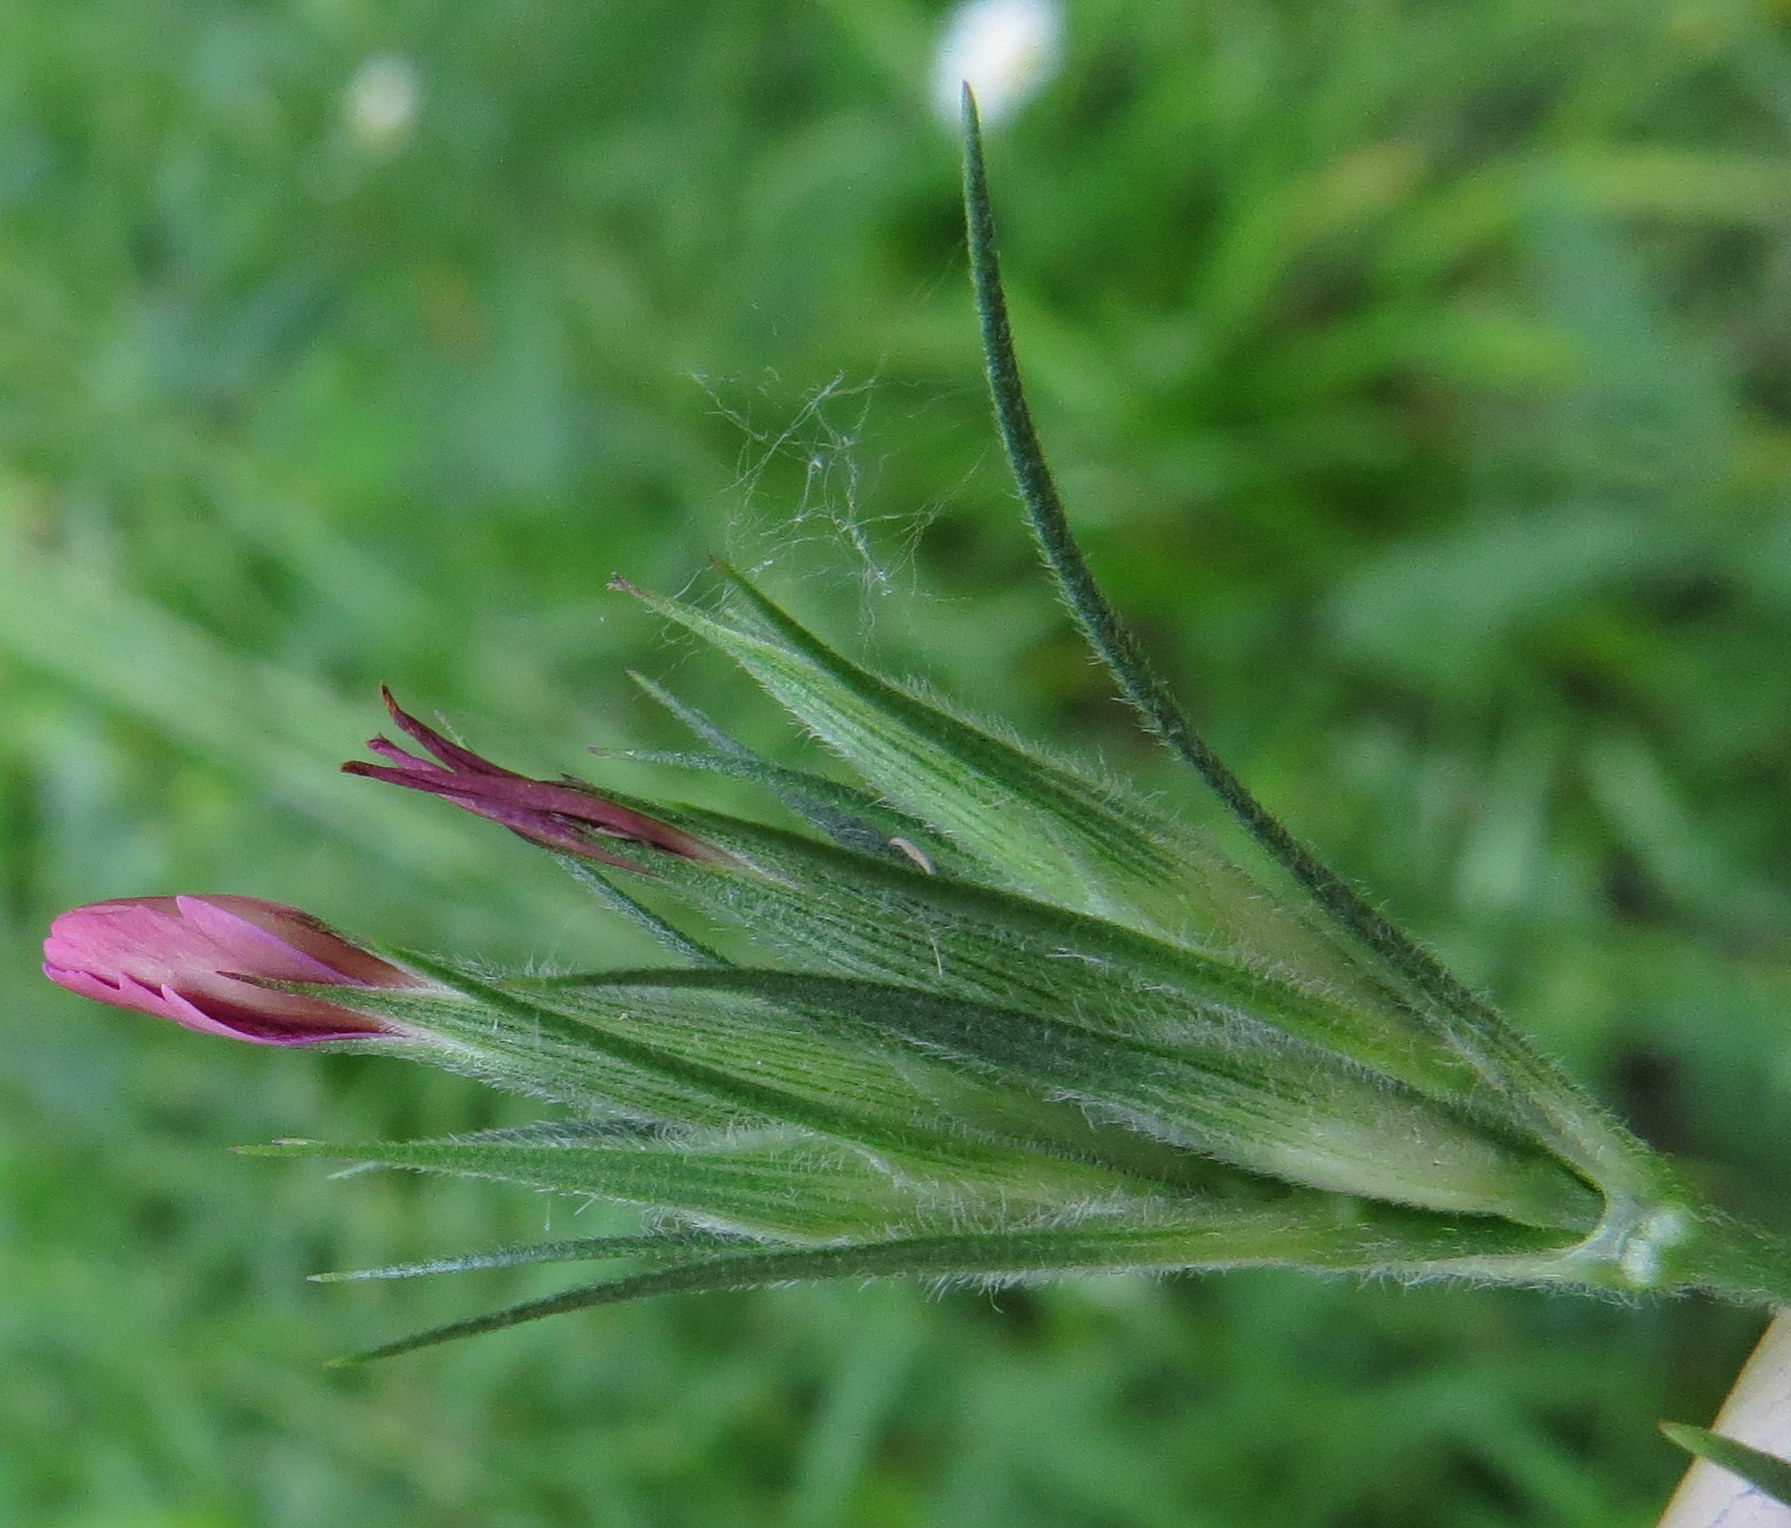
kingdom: Plantae
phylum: Tracheophyta
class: Magnoliopsida
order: Caryophyllales
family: Caryophyllaceae
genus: Dianthus
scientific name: Dianthus armeria
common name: Deptford pink
